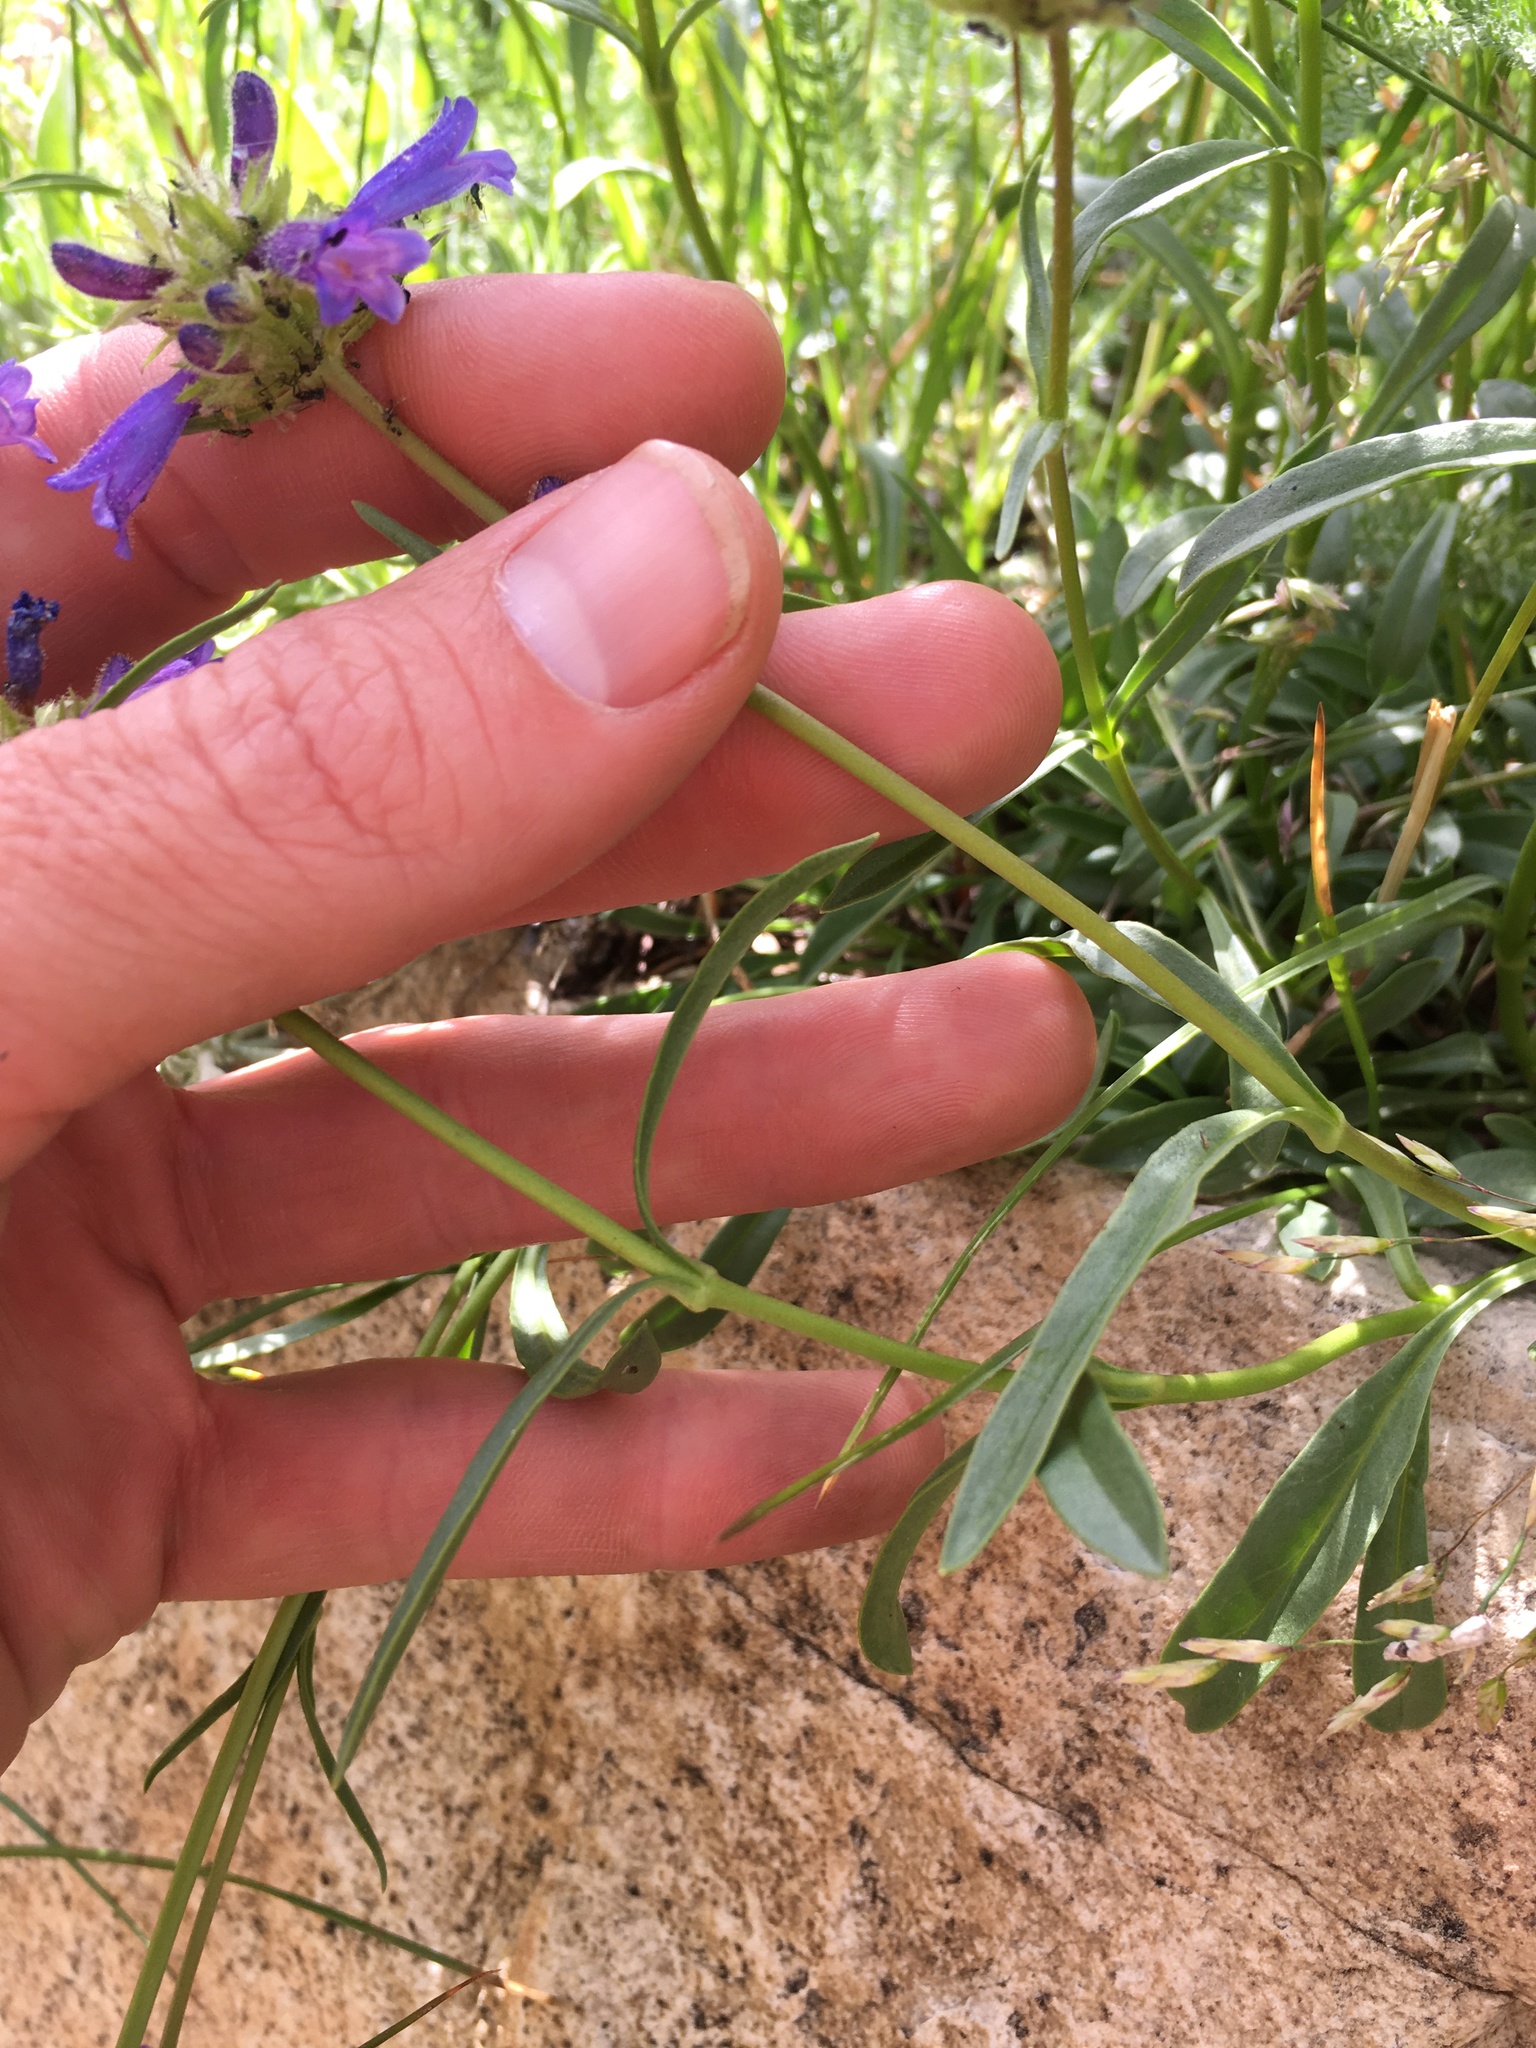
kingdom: Plantae
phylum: Tracheophyta
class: Magnoliopsida
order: Lamiales
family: Plantaginaceae
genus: Penstemon
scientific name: Penstemon heterodoxus
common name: Sierran penstemon
